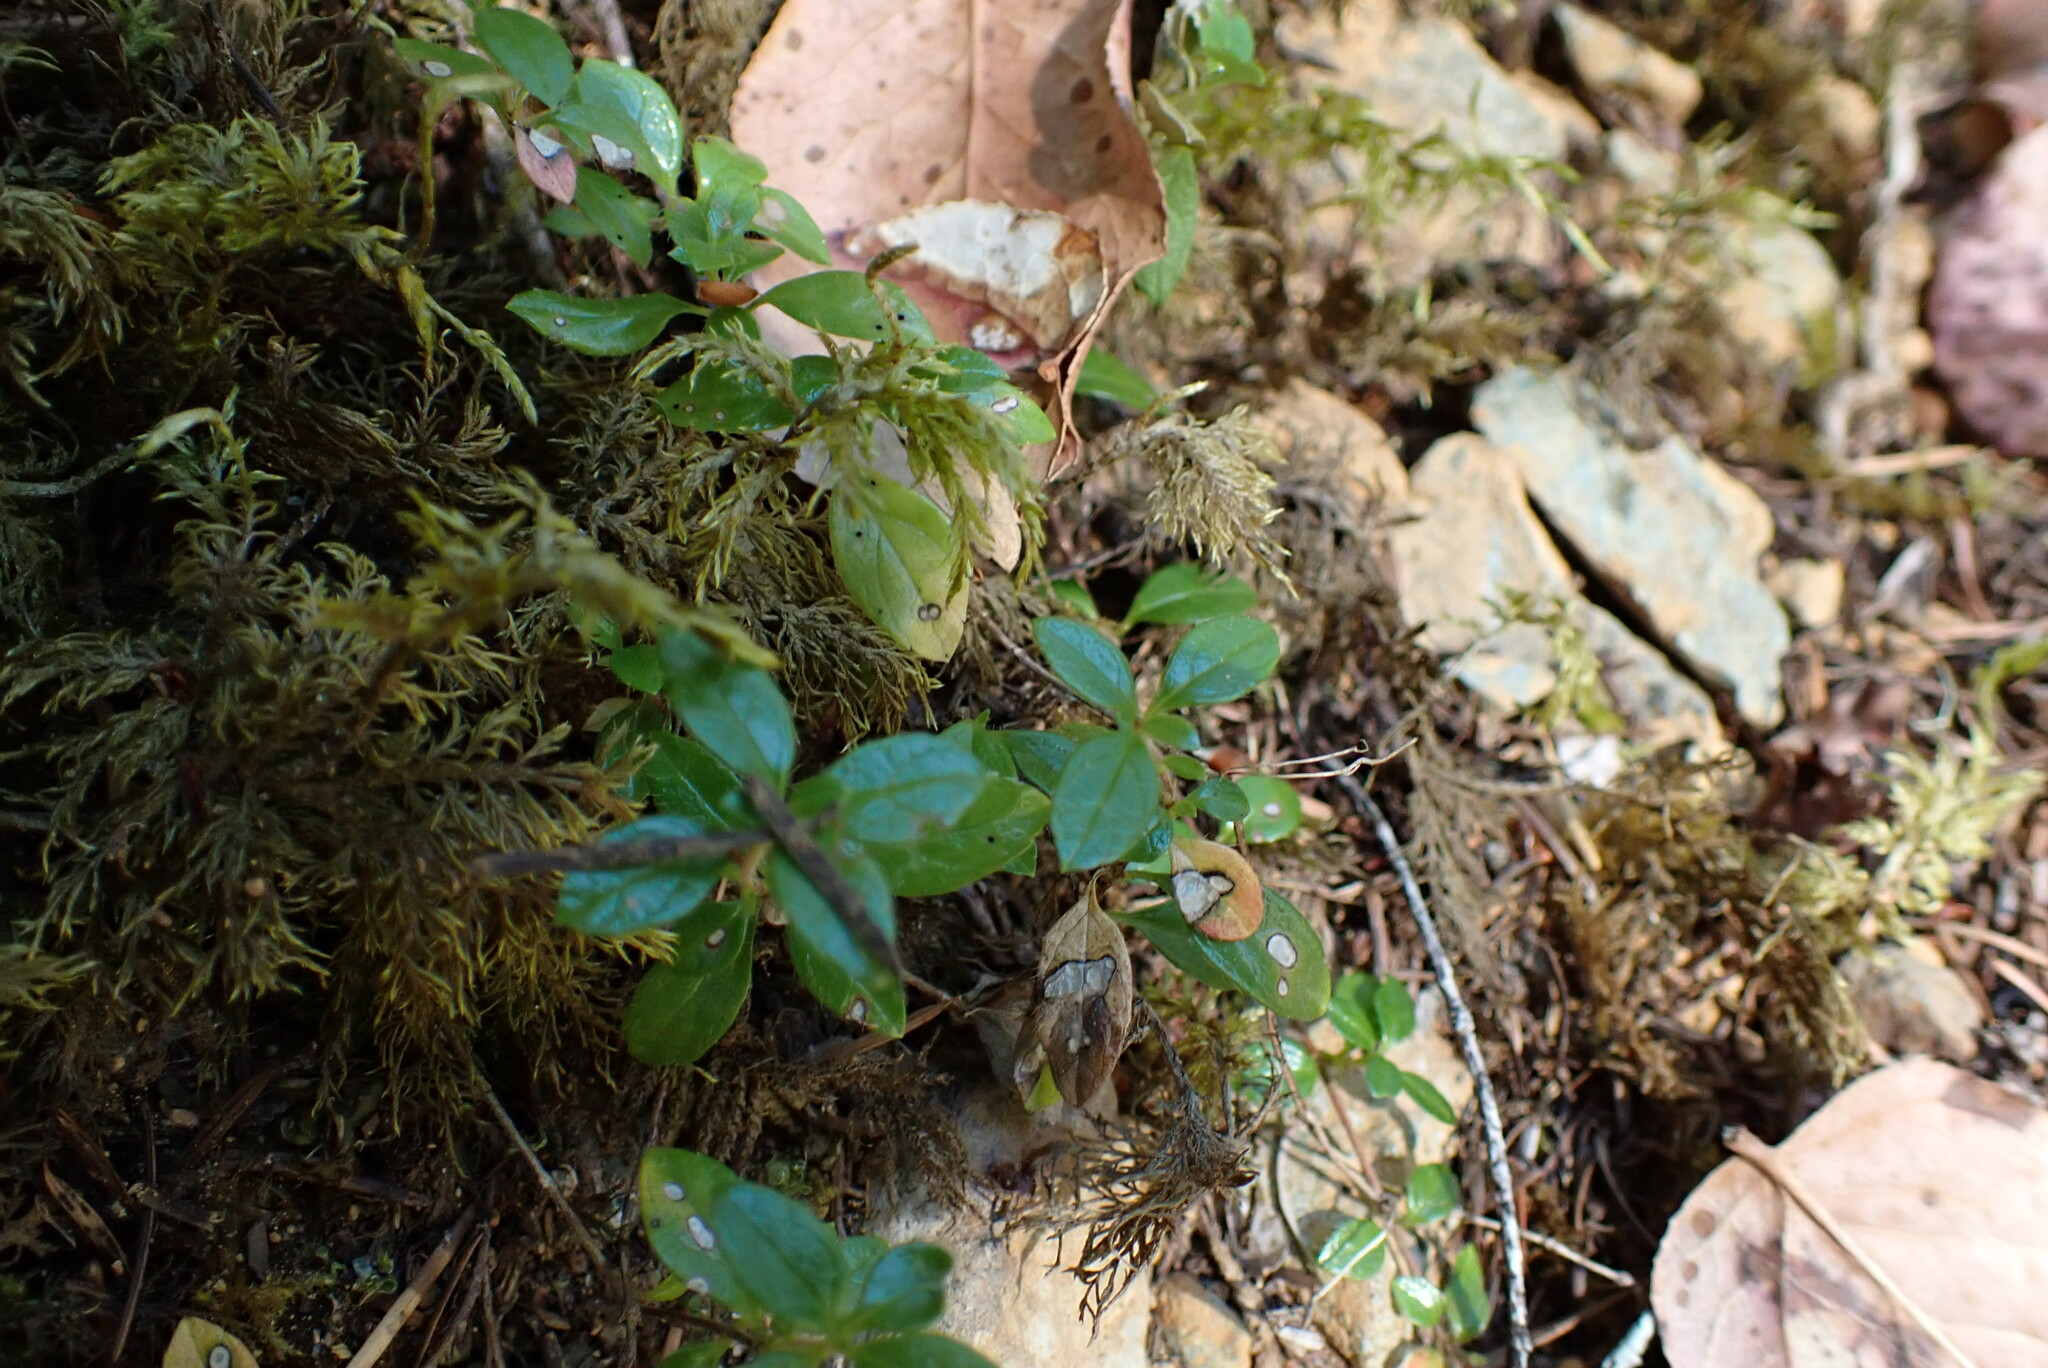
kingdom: Plantae
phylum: Tracheophyta
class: Magnoliopsida
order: Dipsacales
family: Caprifoliaceae
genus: Linnaea
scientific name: Linnaea borealis
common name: Twinflower
